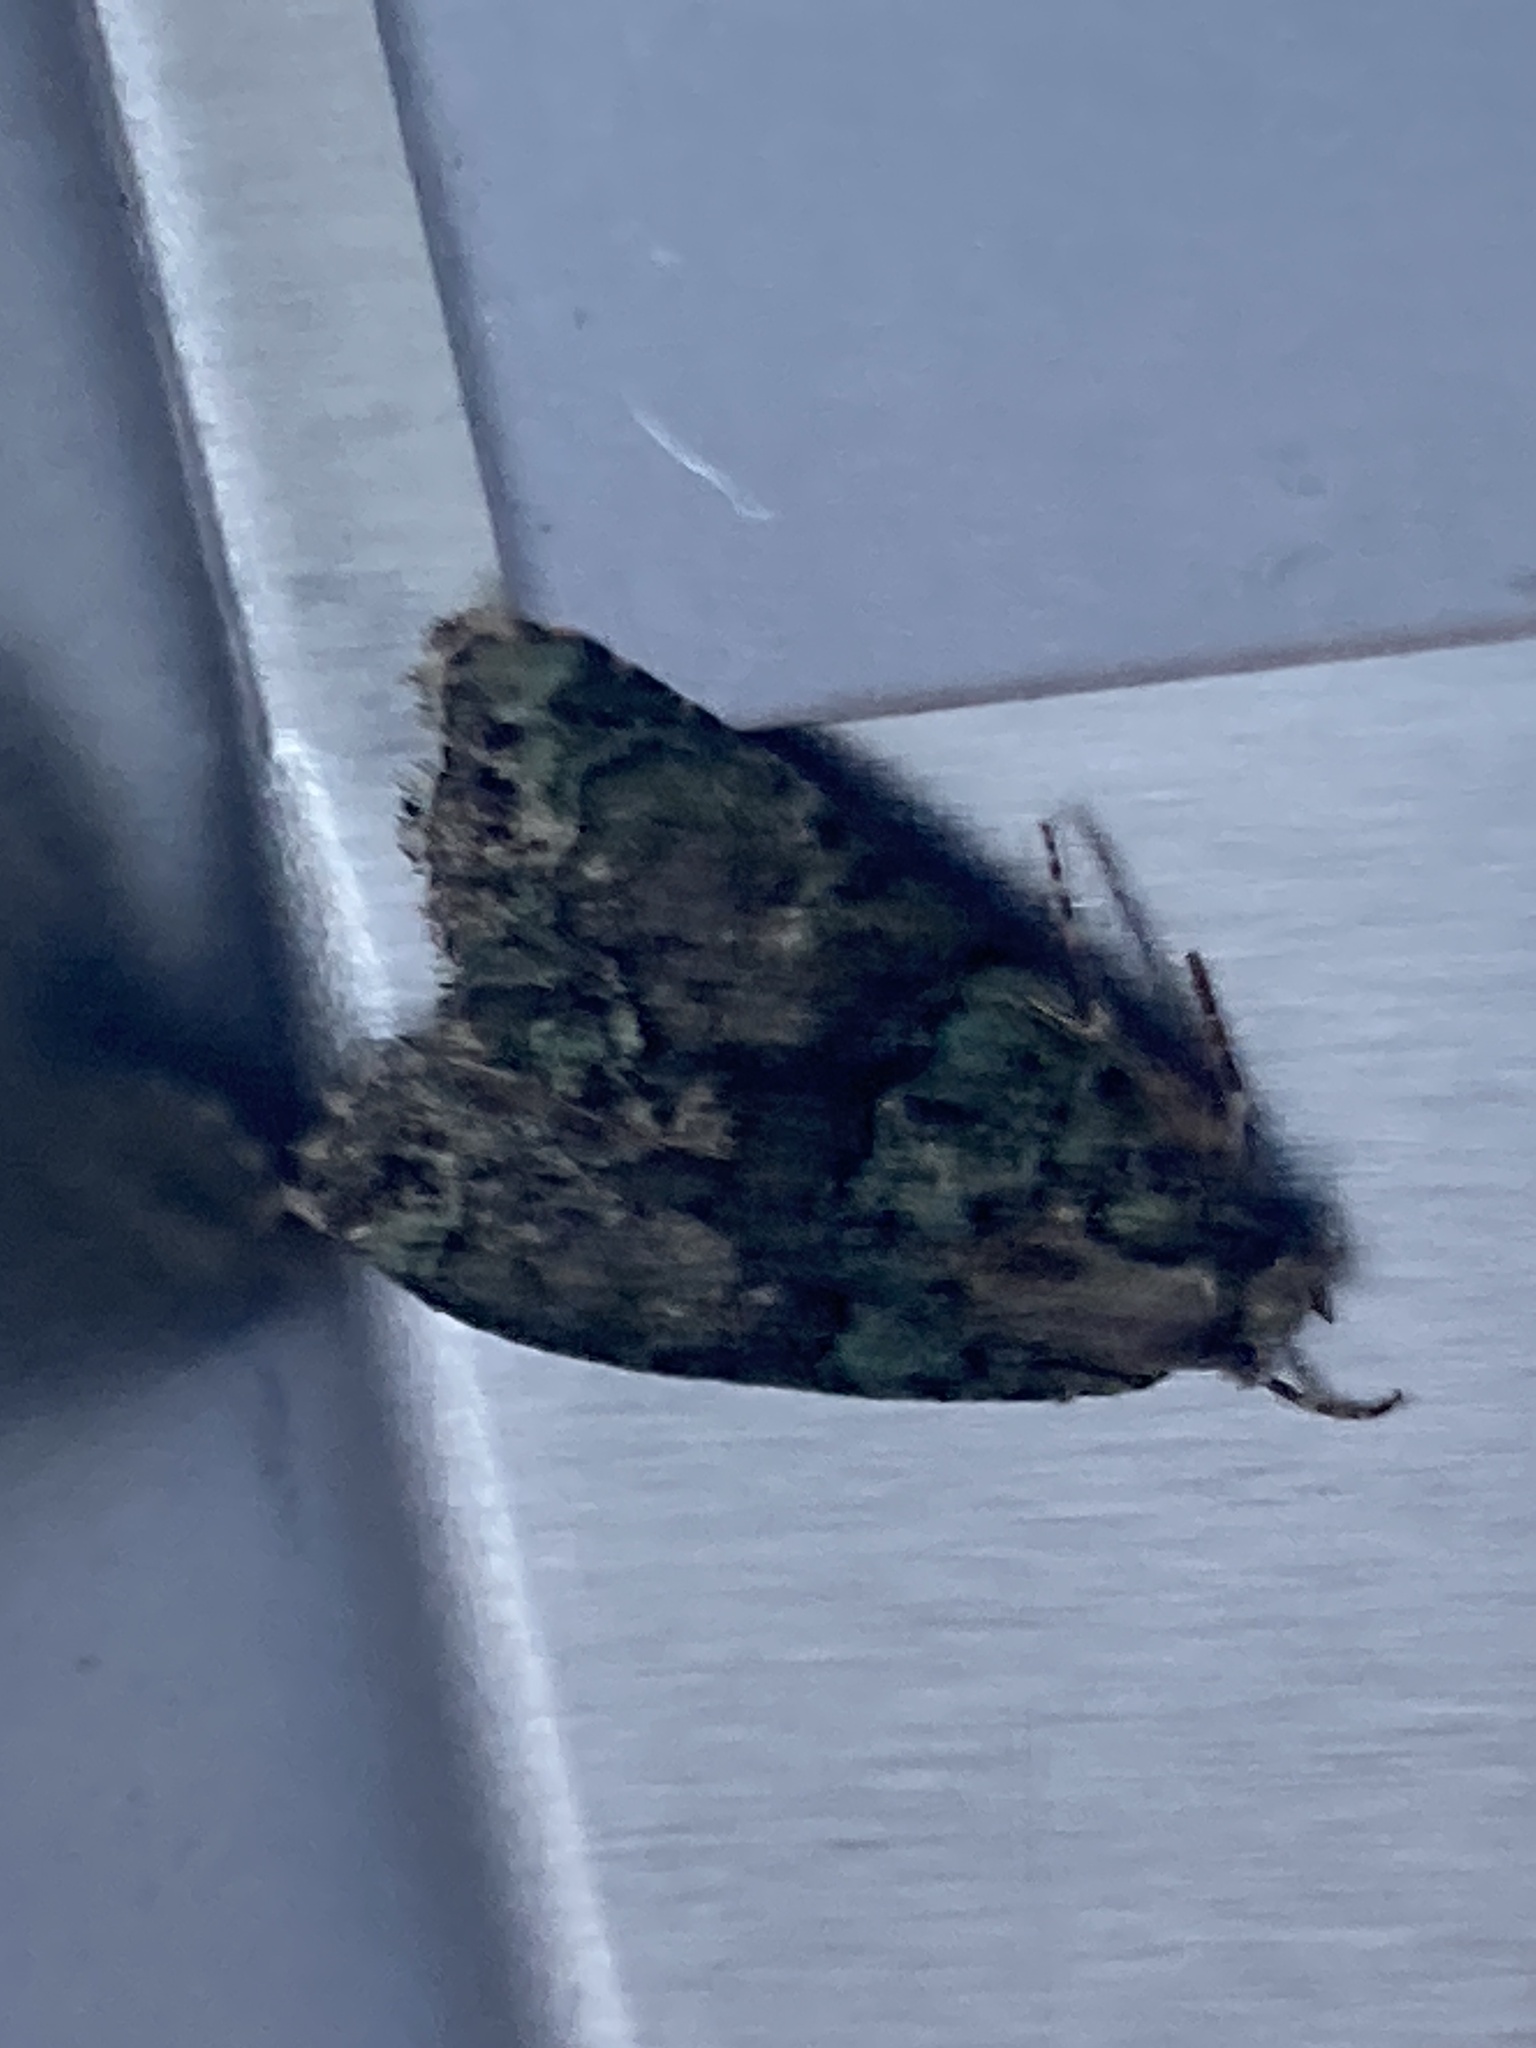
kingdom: Animalia
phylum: Arthropoda
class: Insecta
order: Lepidoptera
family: Noctuidae
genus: Cryphia
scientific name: Cryphia algae
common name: Tree-lichen beauty
